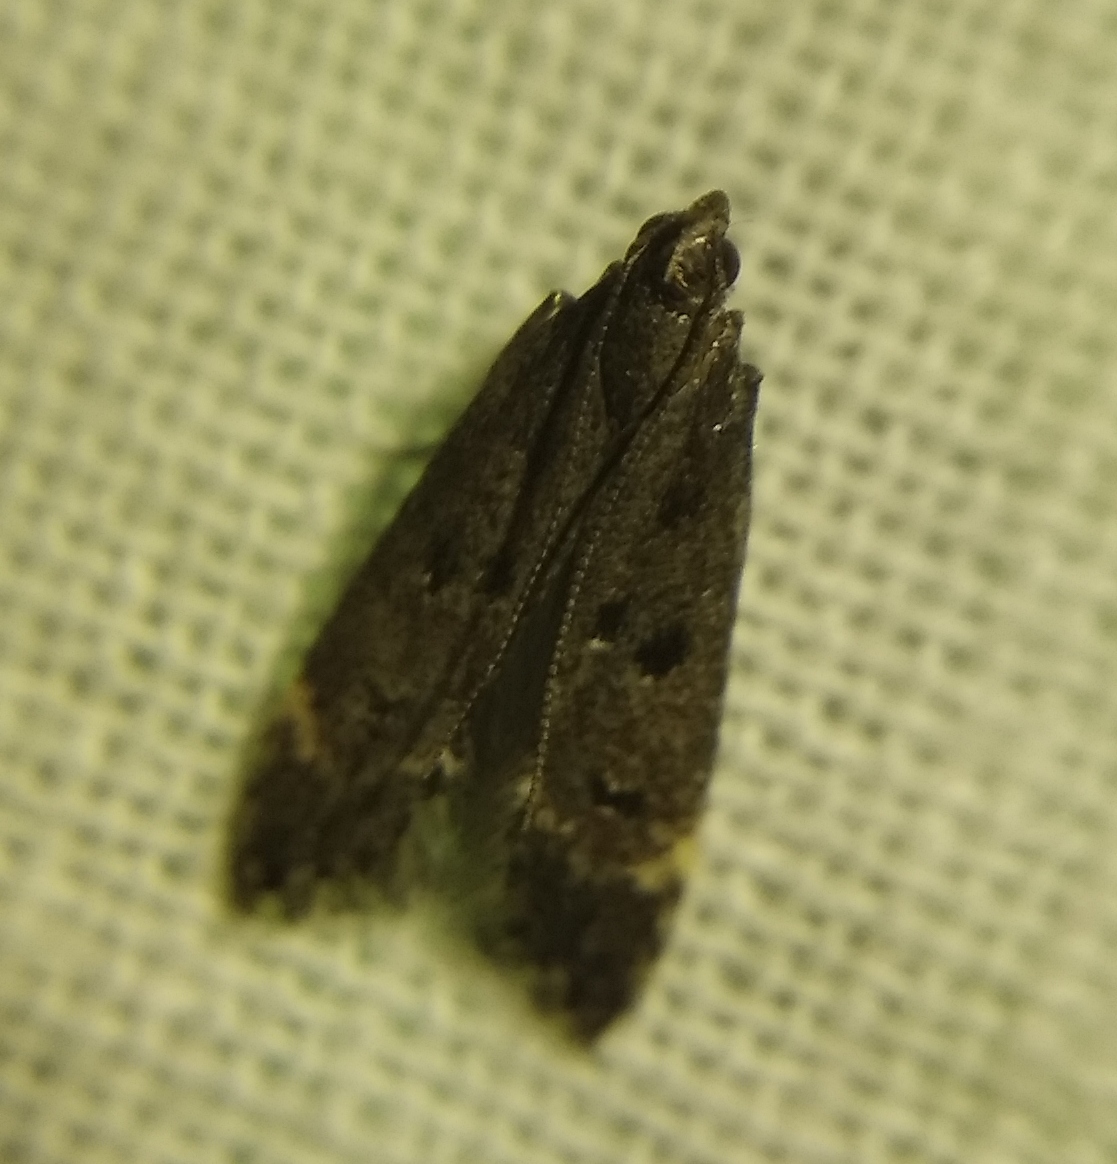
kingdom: Animalia
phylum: Arthropoda
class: Insecta
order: Lepidoptera
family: Gelechiidae
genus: Acanthophila
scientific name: Acanthophila alacella
